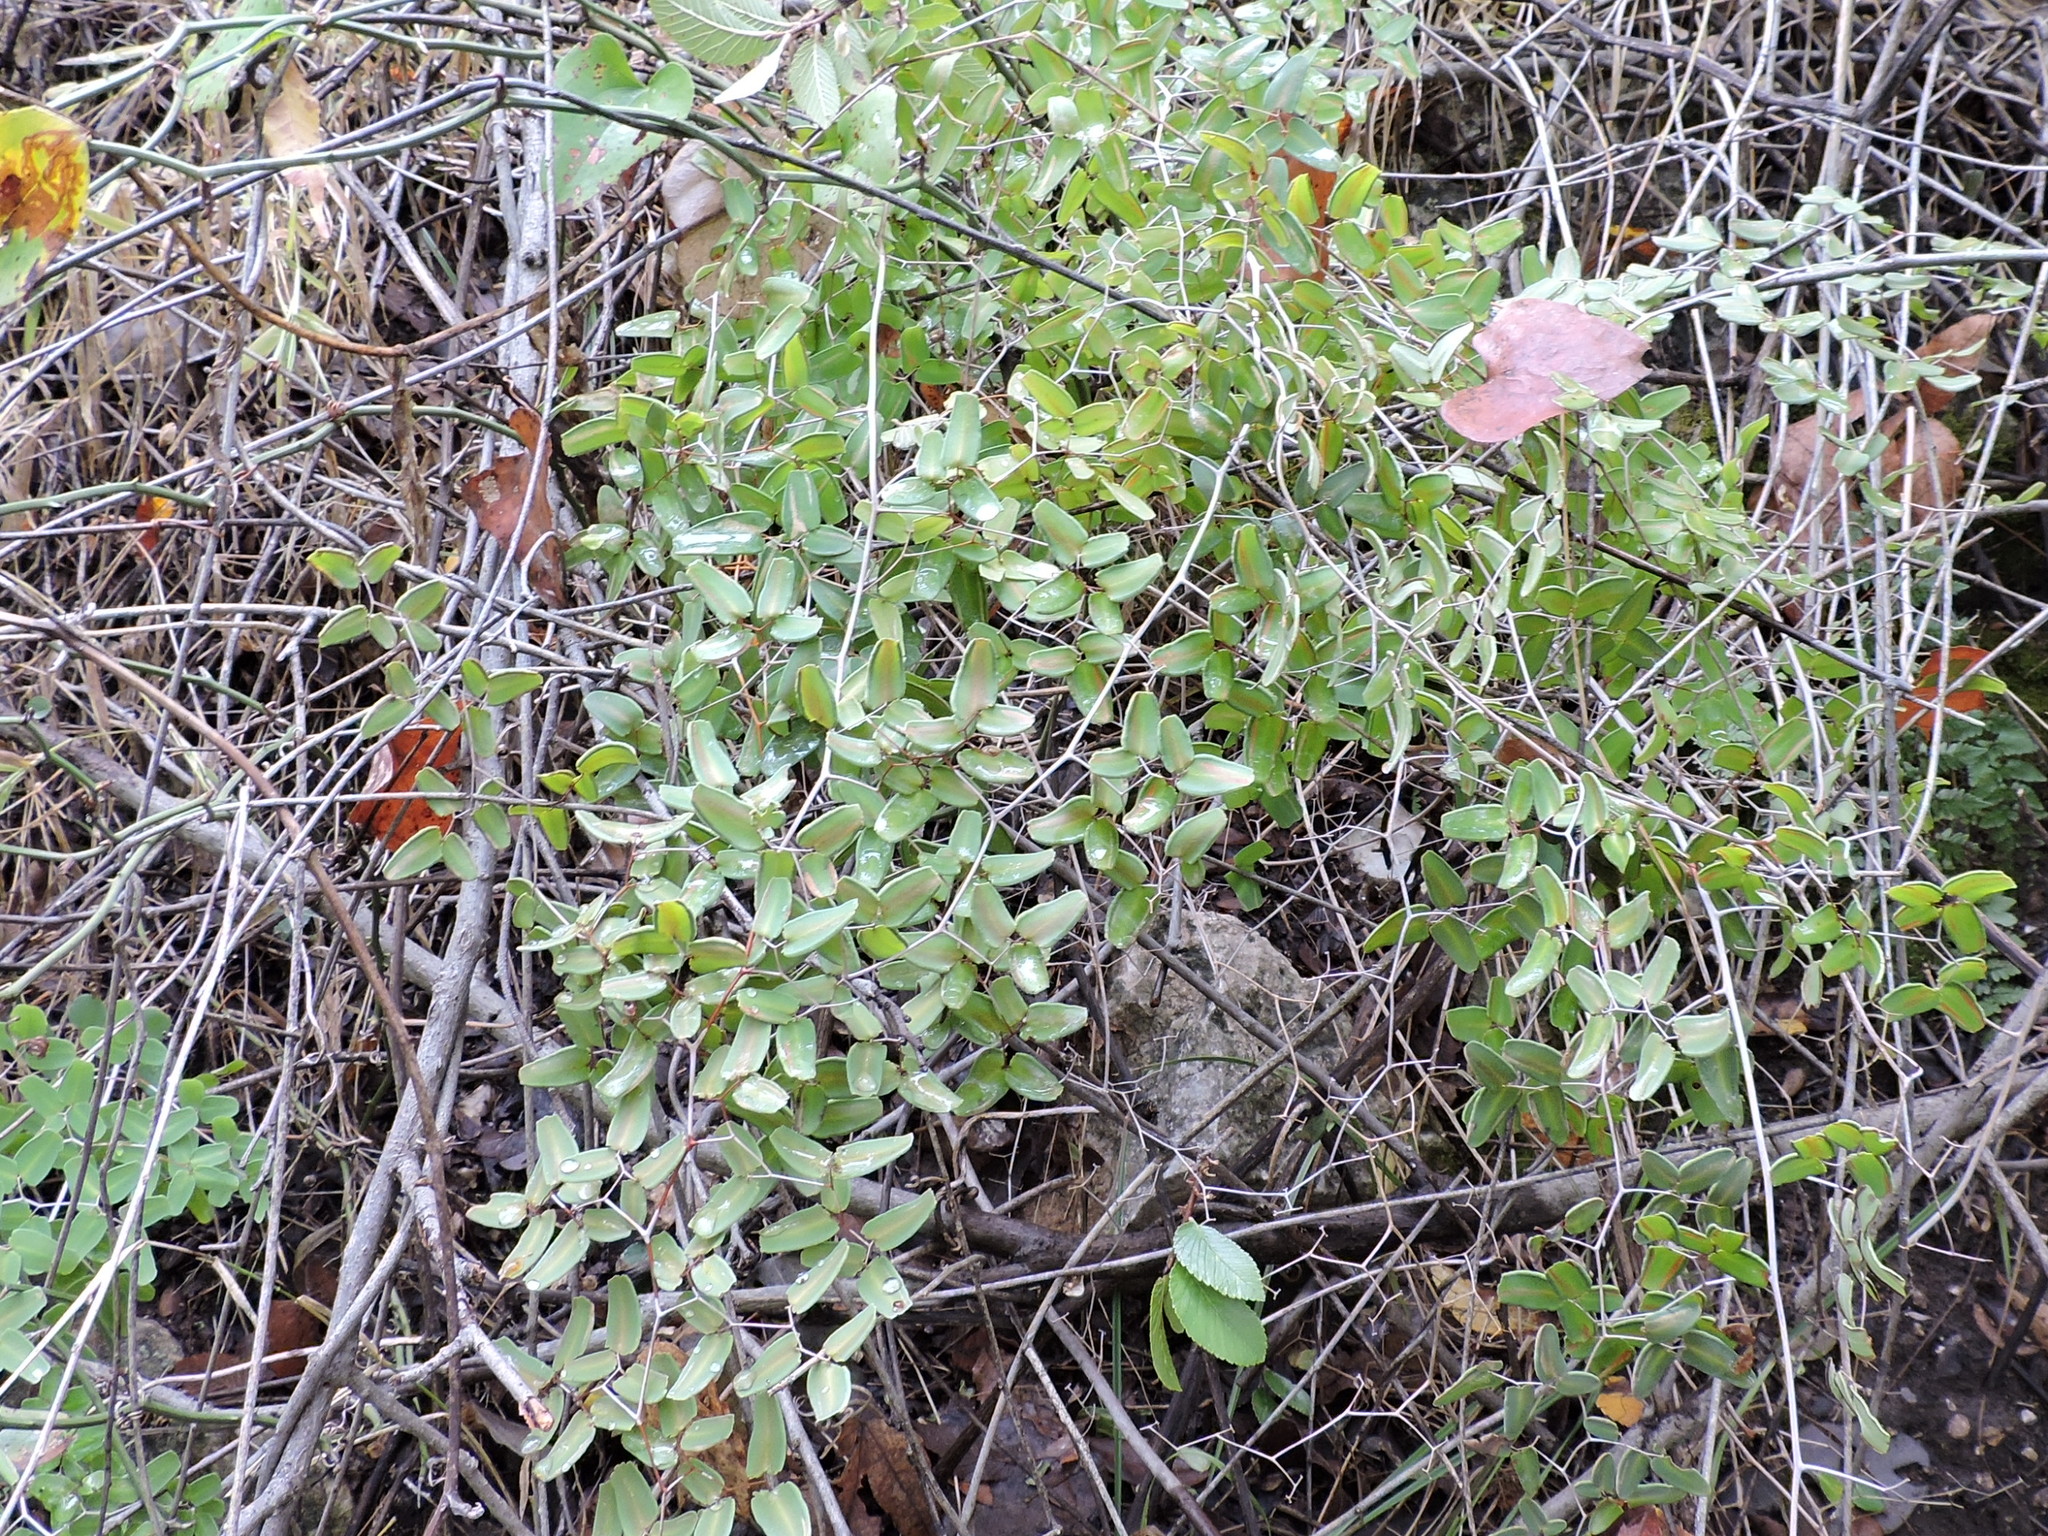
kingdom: Plantae
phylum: Tracheophyta
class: Polypodiopsida
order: Polypodiales
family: Pteridaceae
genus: Pellaea
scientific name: Pellaea ovata
